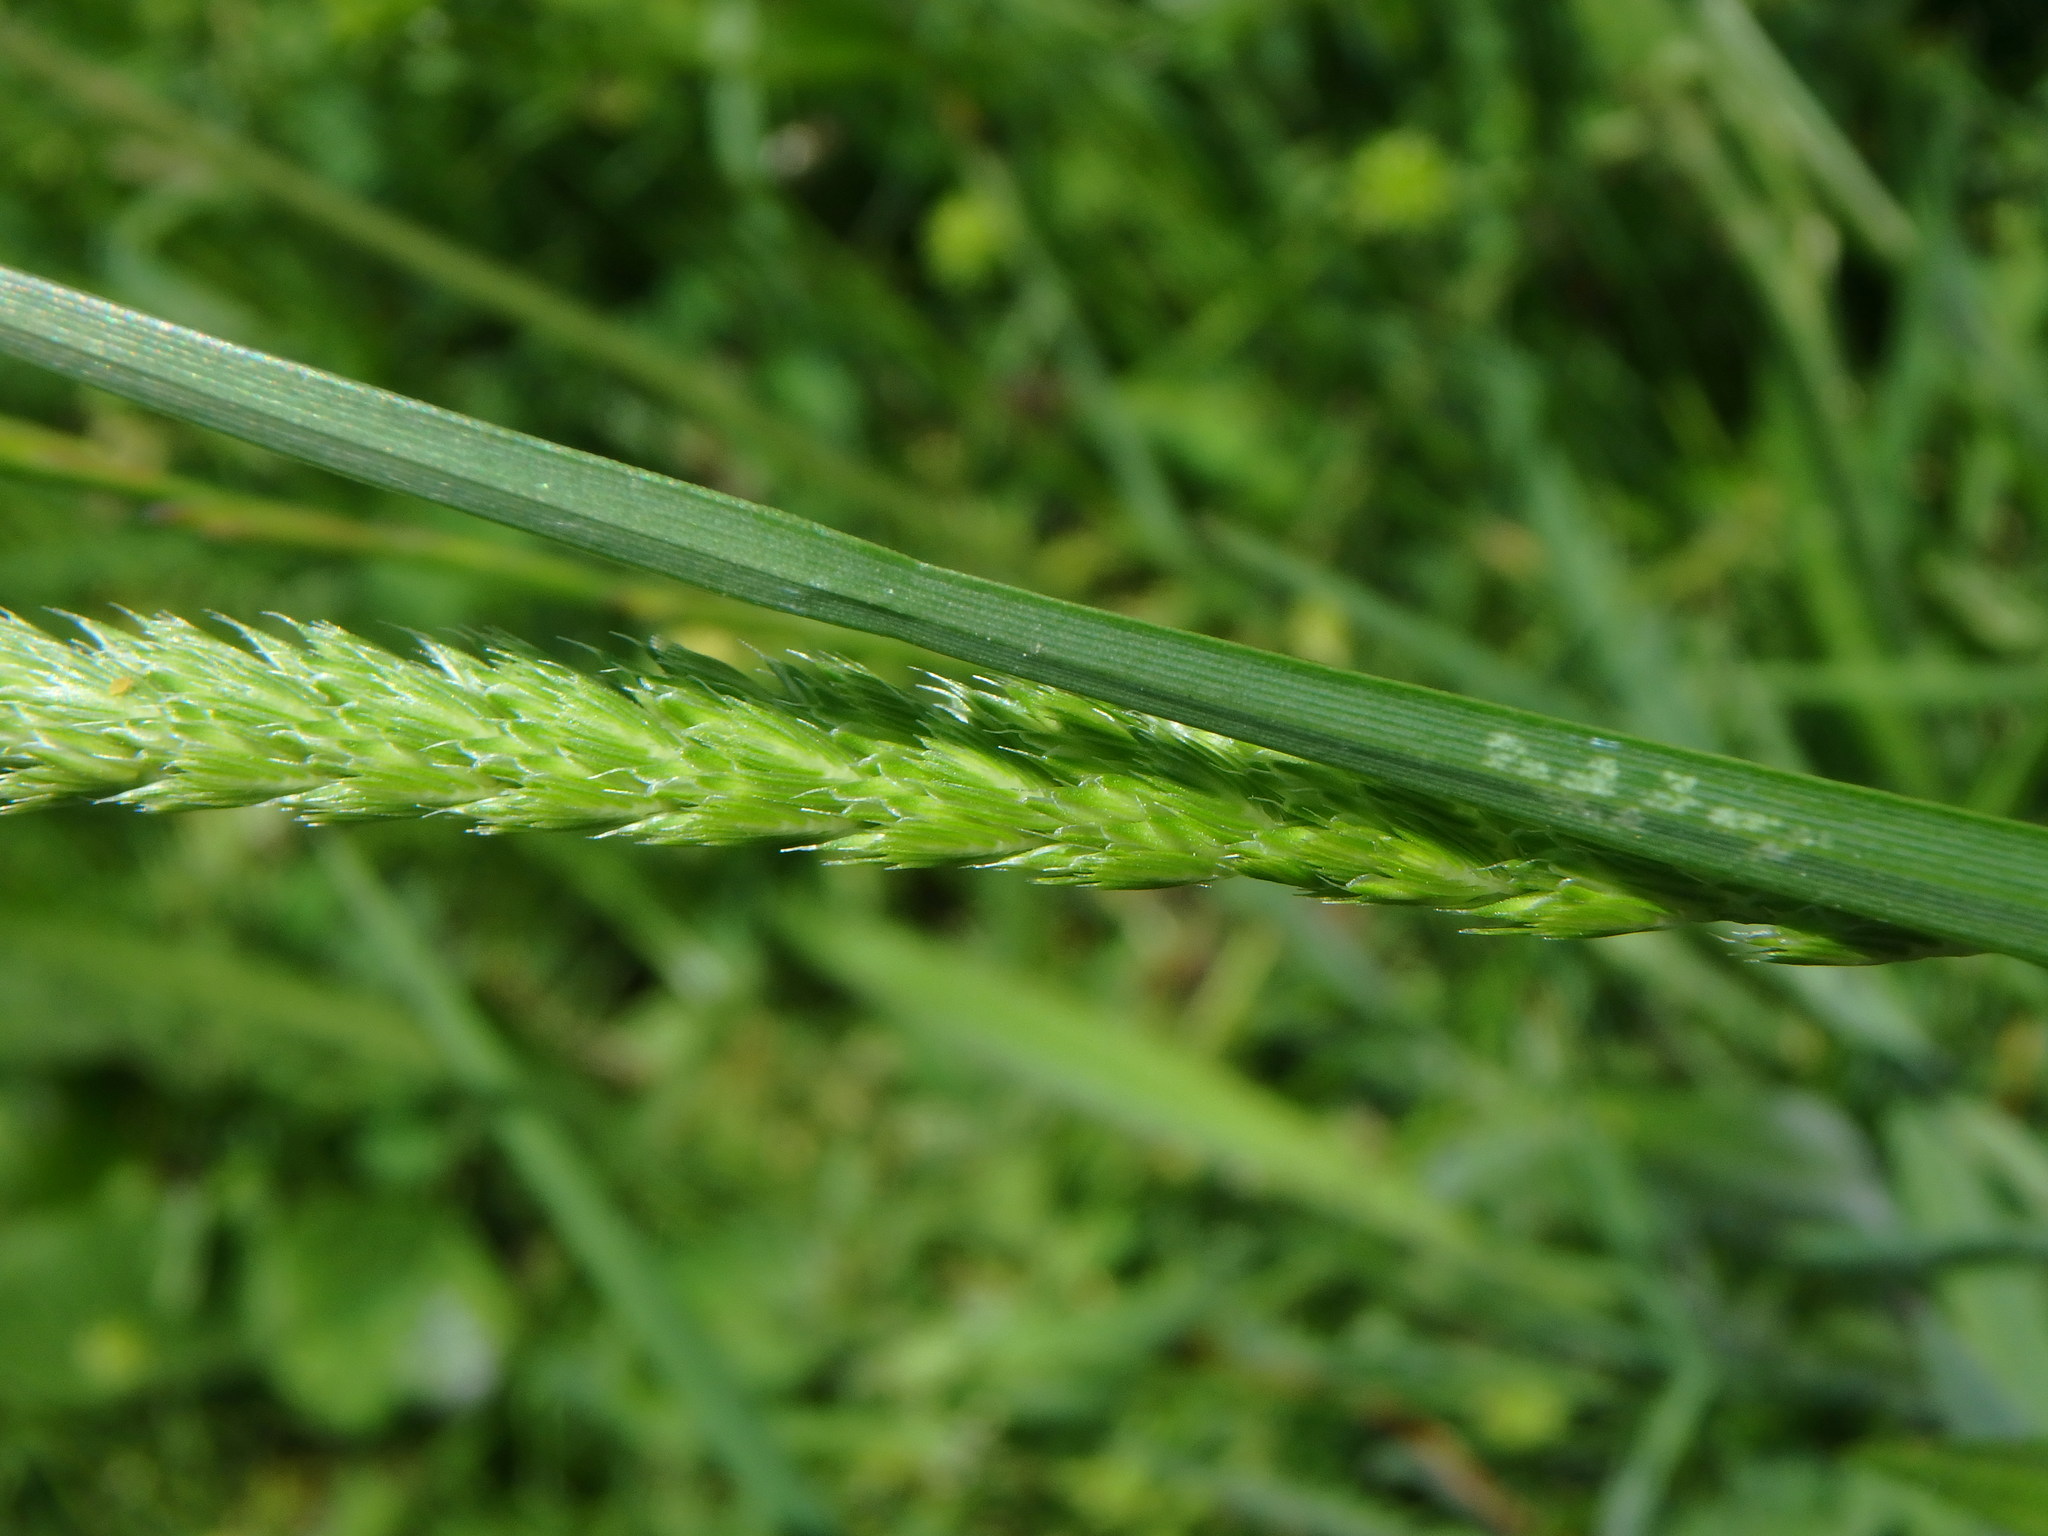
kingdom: Plantae
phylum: Tracheophyta
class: Liliopsida
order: Poales
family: Poaceae
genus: Cynosurus
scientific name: Cynosurus cristatus
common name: Crested dog's-tail
